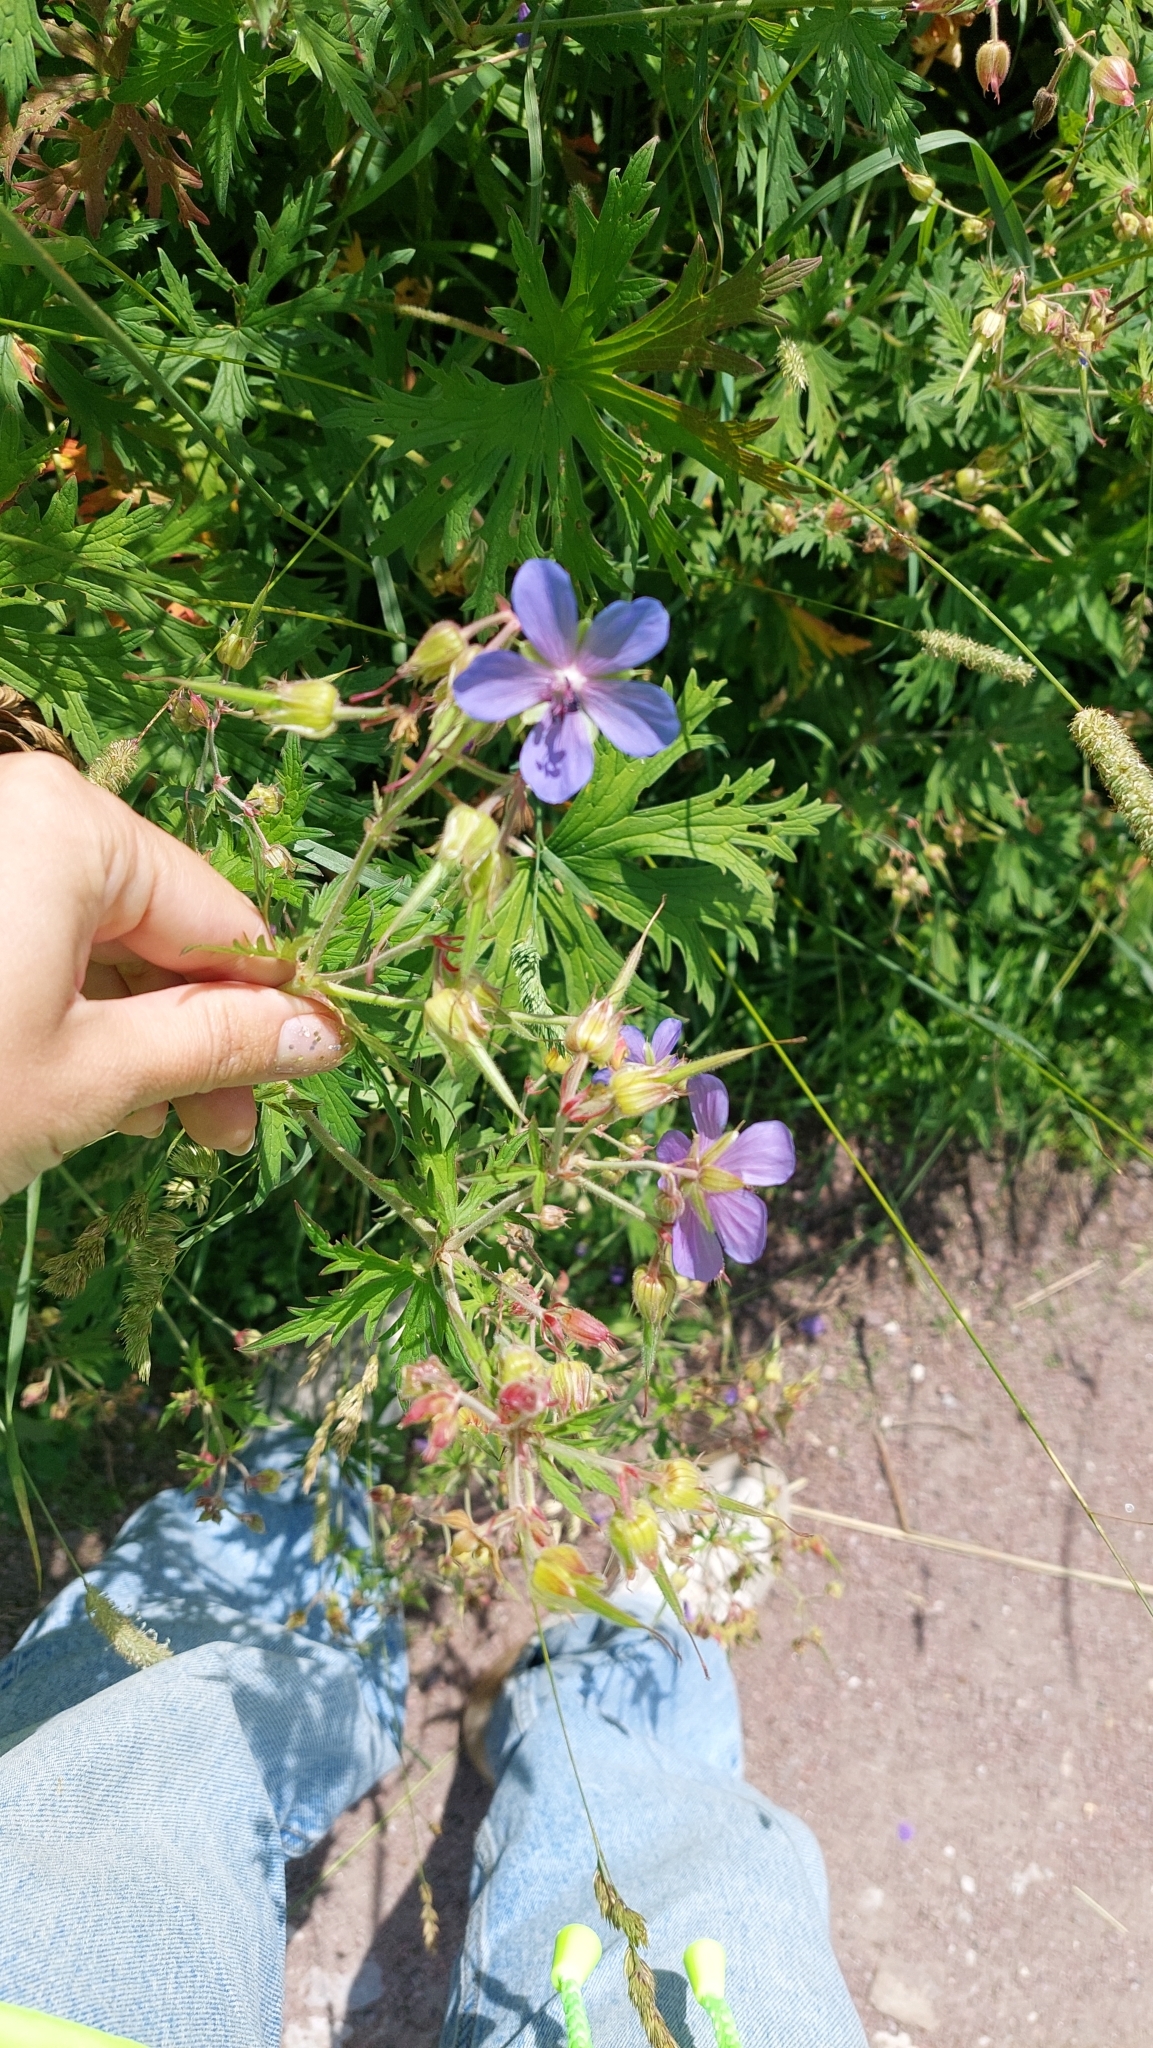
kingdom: Plantae
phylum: Tracheophyta
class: Magnoliopsida
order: Geraniales
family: Geraniaceae
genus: Geranium
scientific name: Geranium pratense
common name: Meadow crane's-bill
